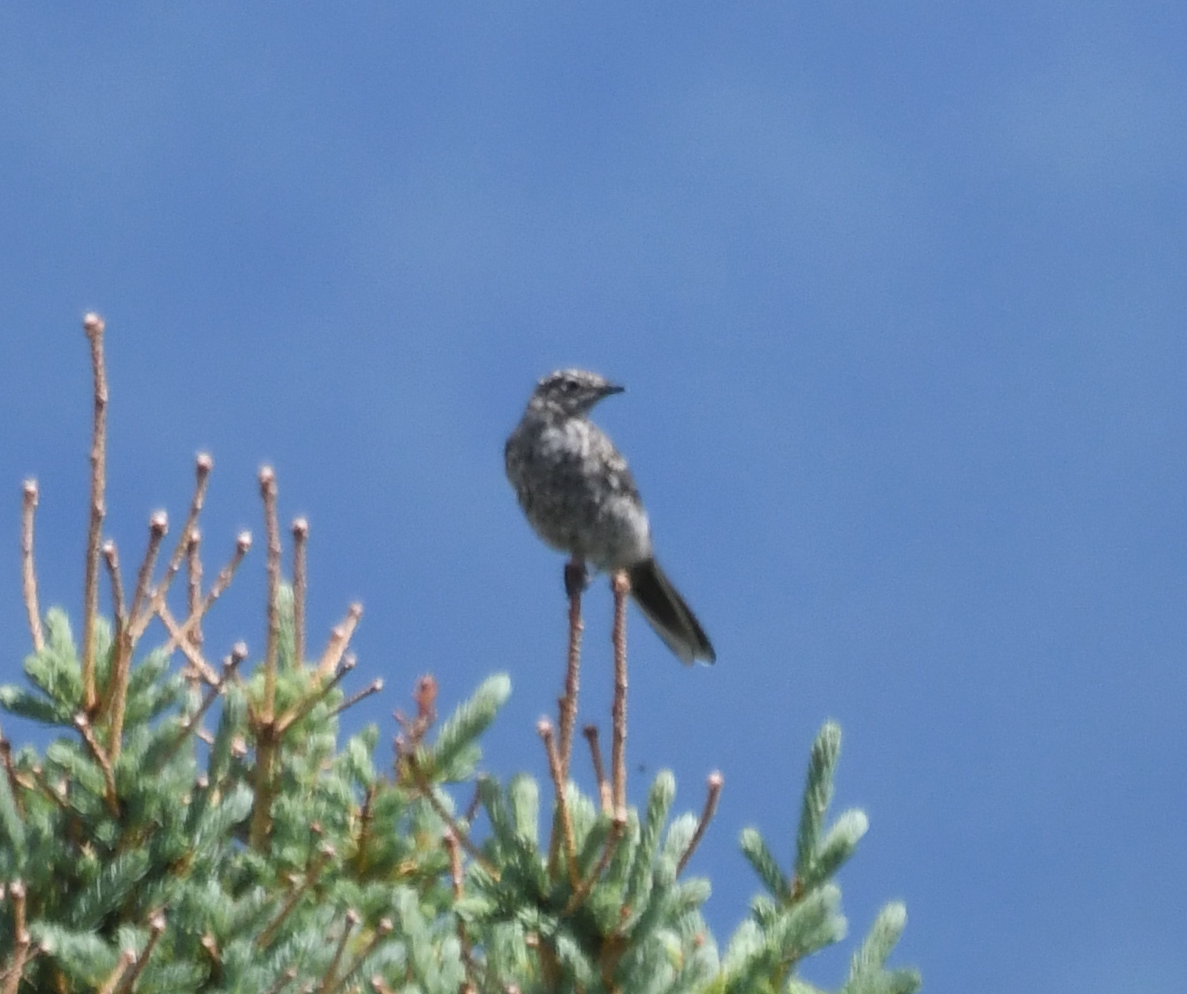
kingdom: Animalia
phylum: Chordata
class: Aves
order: Passeriformes
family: Turdidae
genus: Myadestes
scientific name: Myadestes townsendi
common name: Townsend's solitaire
